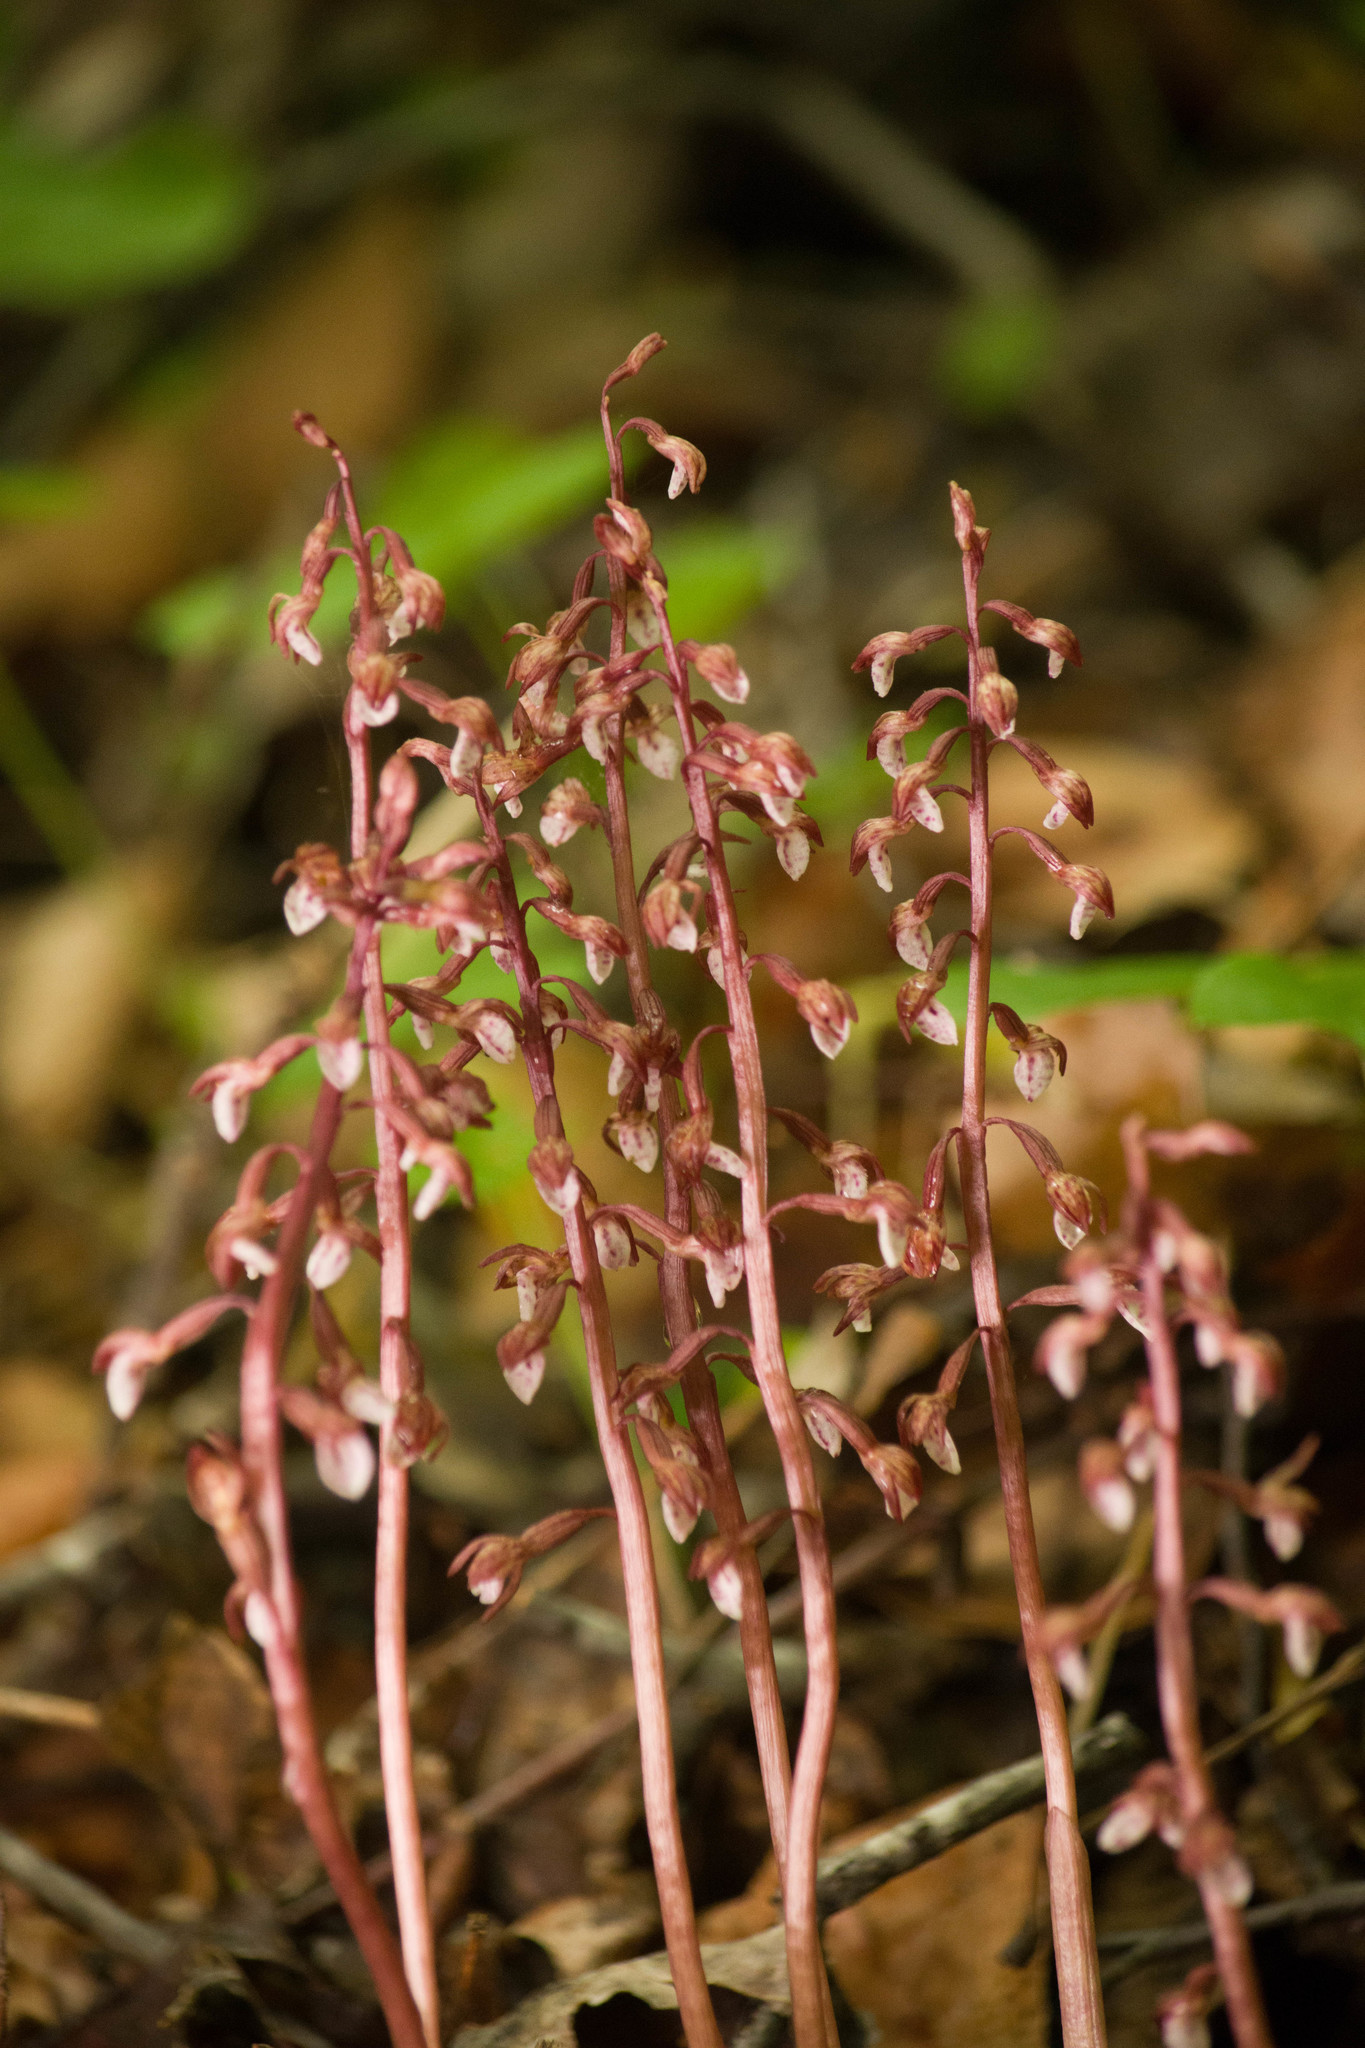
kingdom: Plantae
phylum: Tracheophyta
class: Liliopsida
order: Asparagales
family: Orchidaceae
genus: Corallorhiza
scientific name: Corallorhiza wisteriana
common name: Spring coralroot
